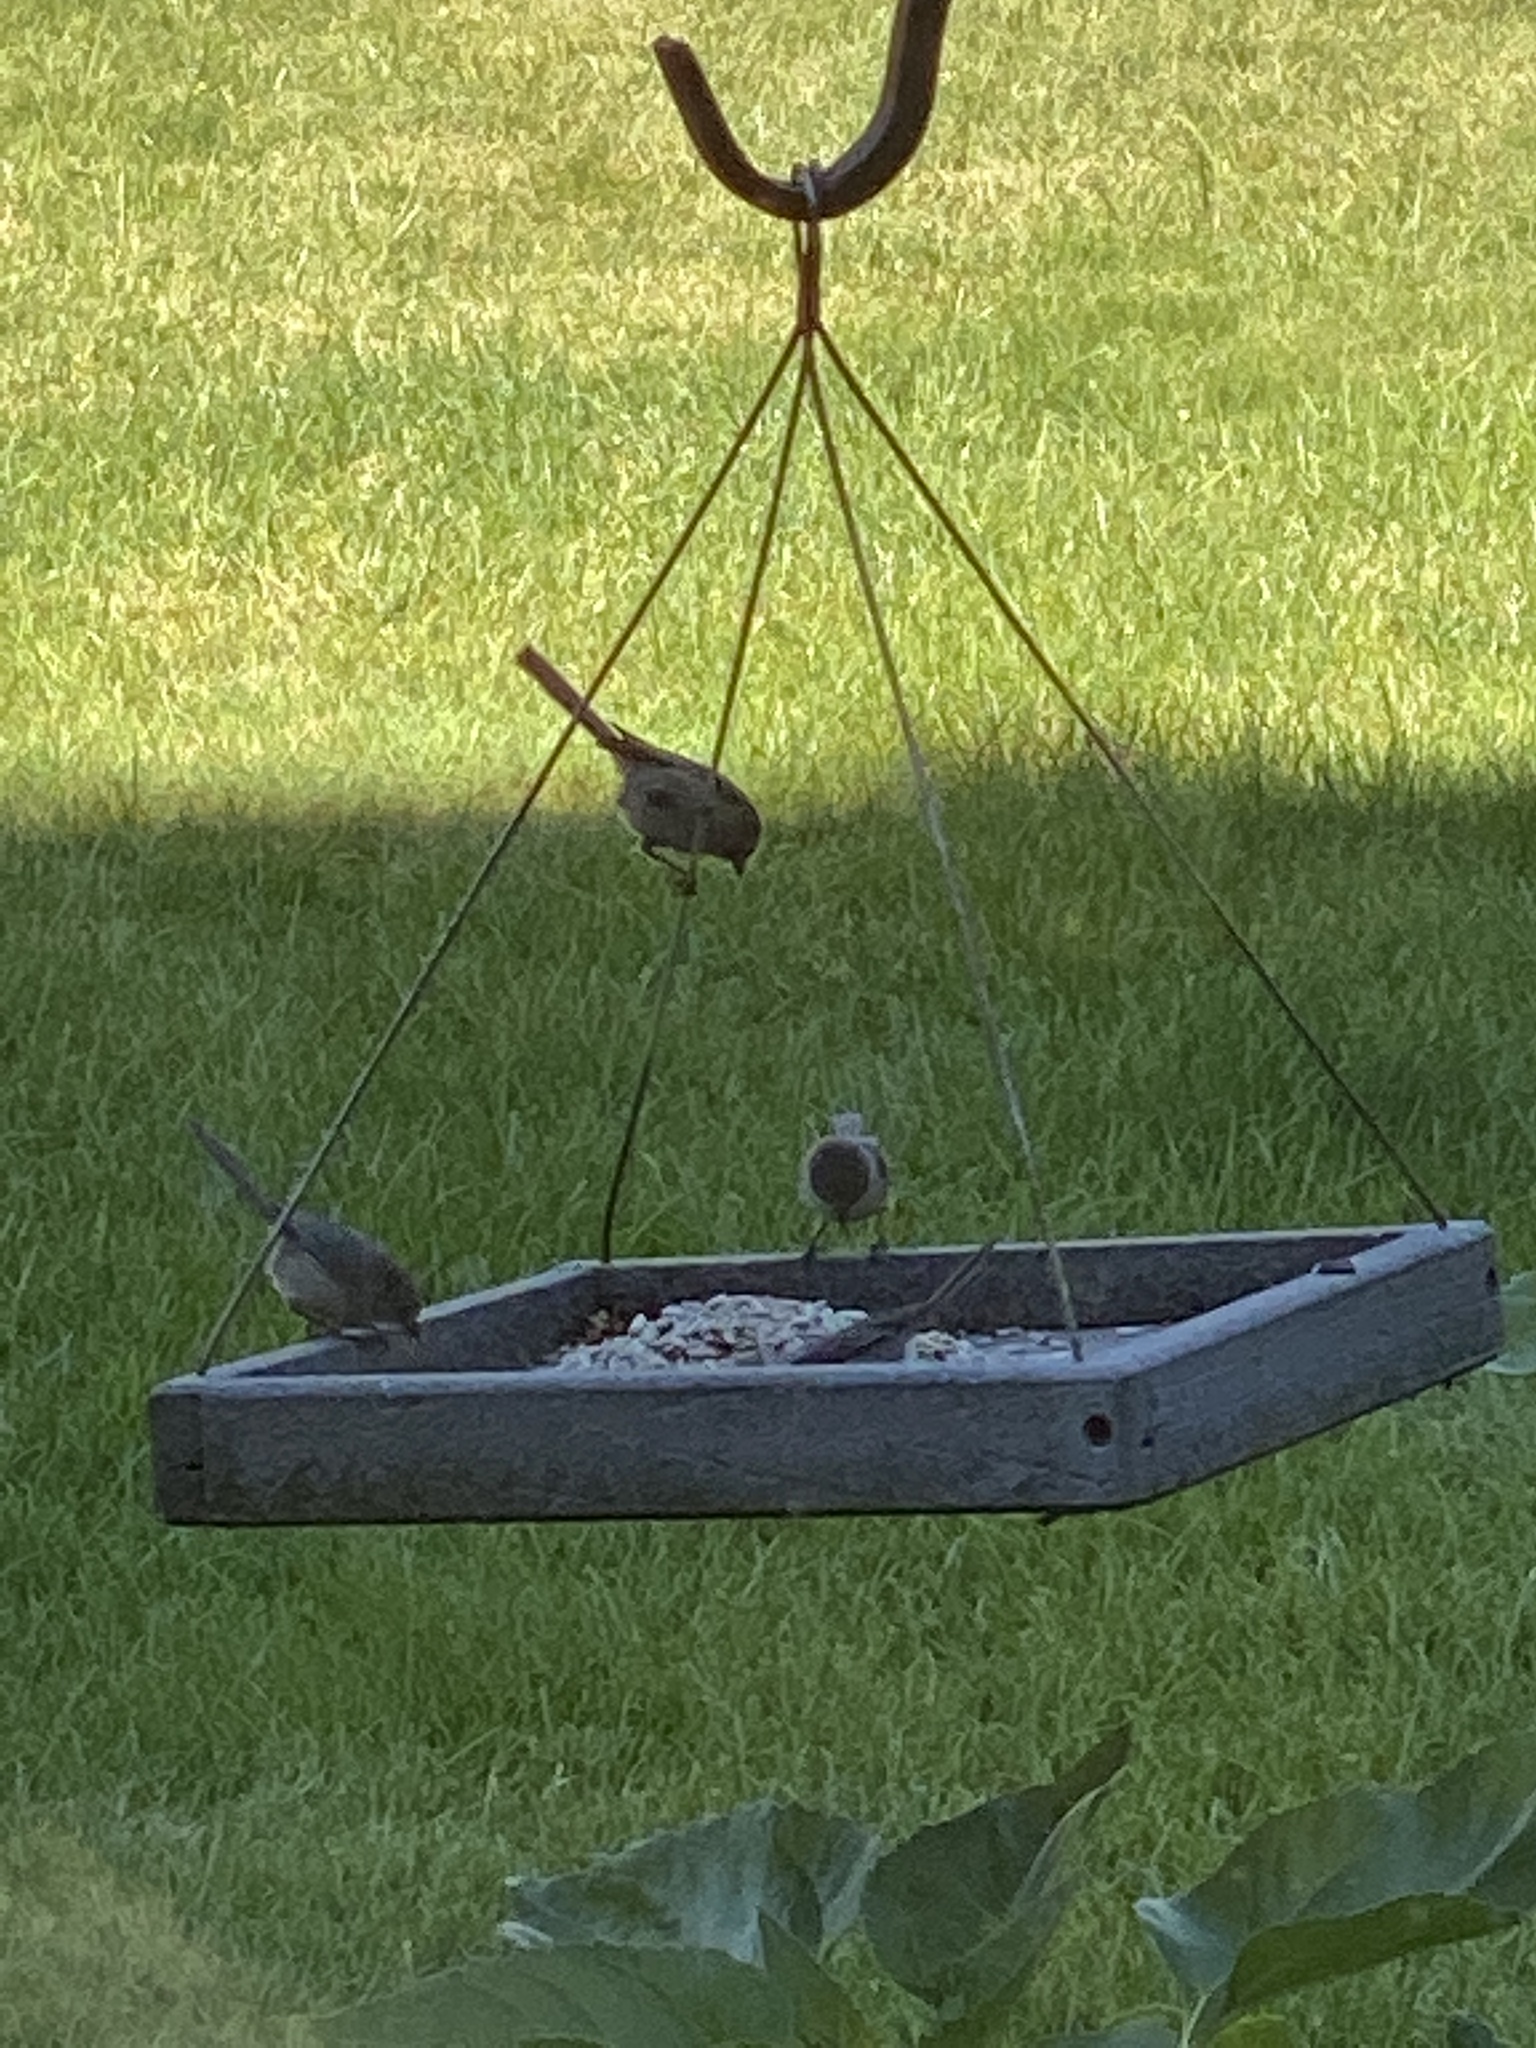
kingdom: Animalia
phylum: Chordata
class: Aves
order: Passeriformes
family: Aegithalidae
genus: Psaltriparus
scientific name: Psaltriparus minimus
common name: American bushtit
